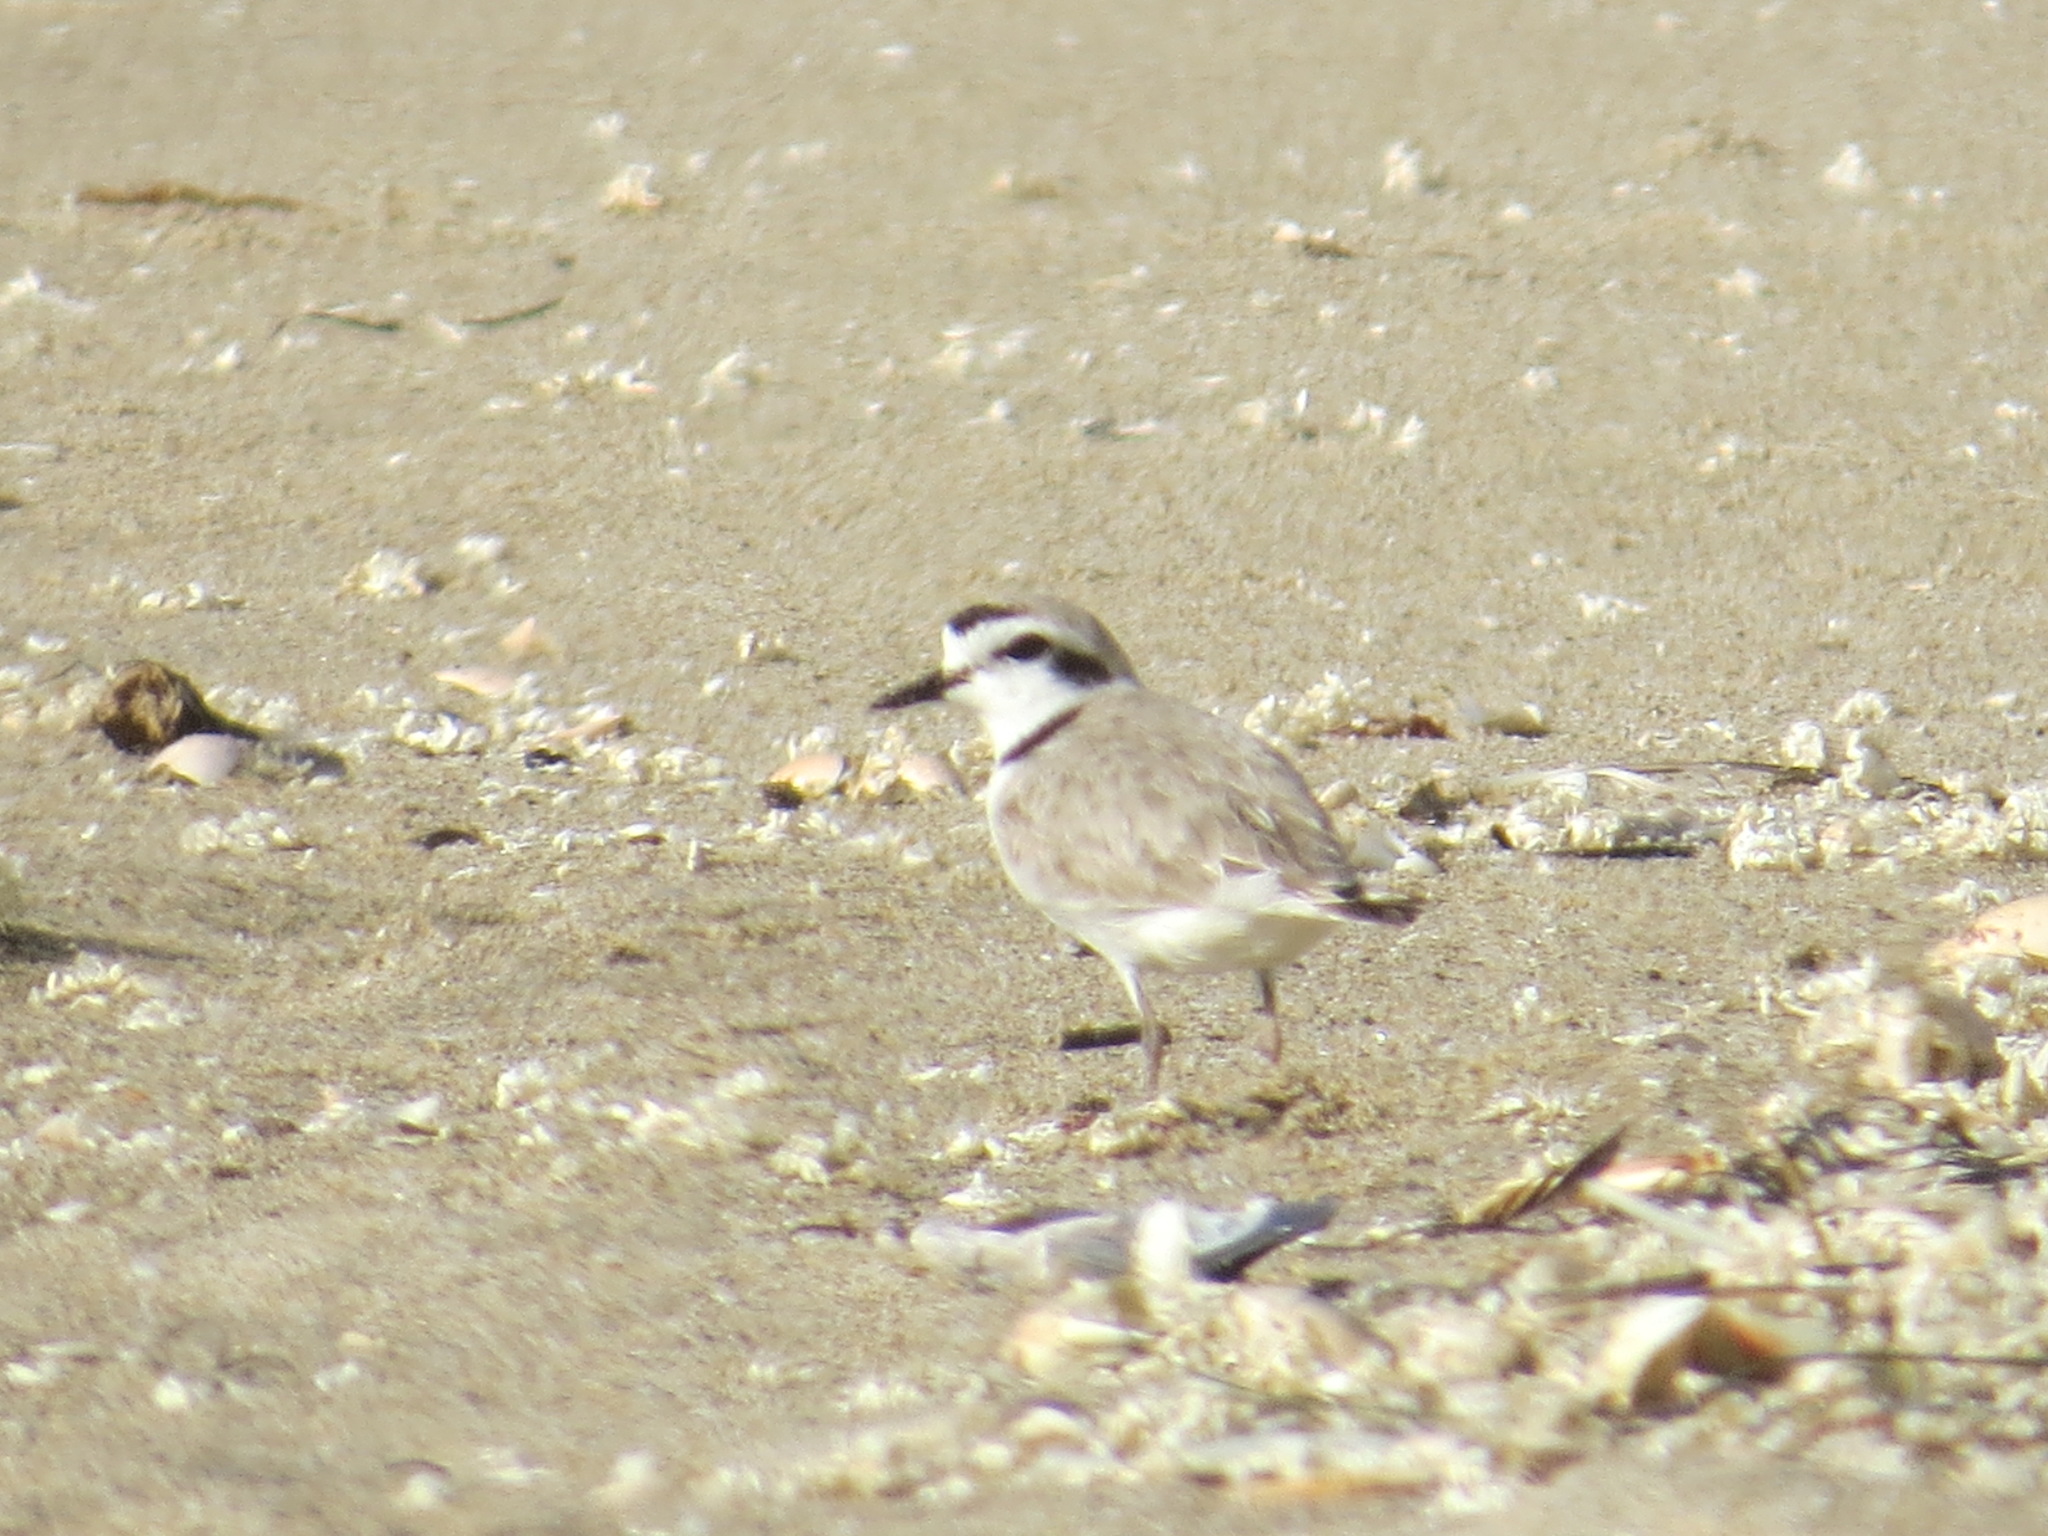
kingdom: Animalia
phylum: Chordata
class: Aves
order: Charadriiformes
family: Charadriidae
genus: Anarhynchus
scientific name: Anarhynchus
